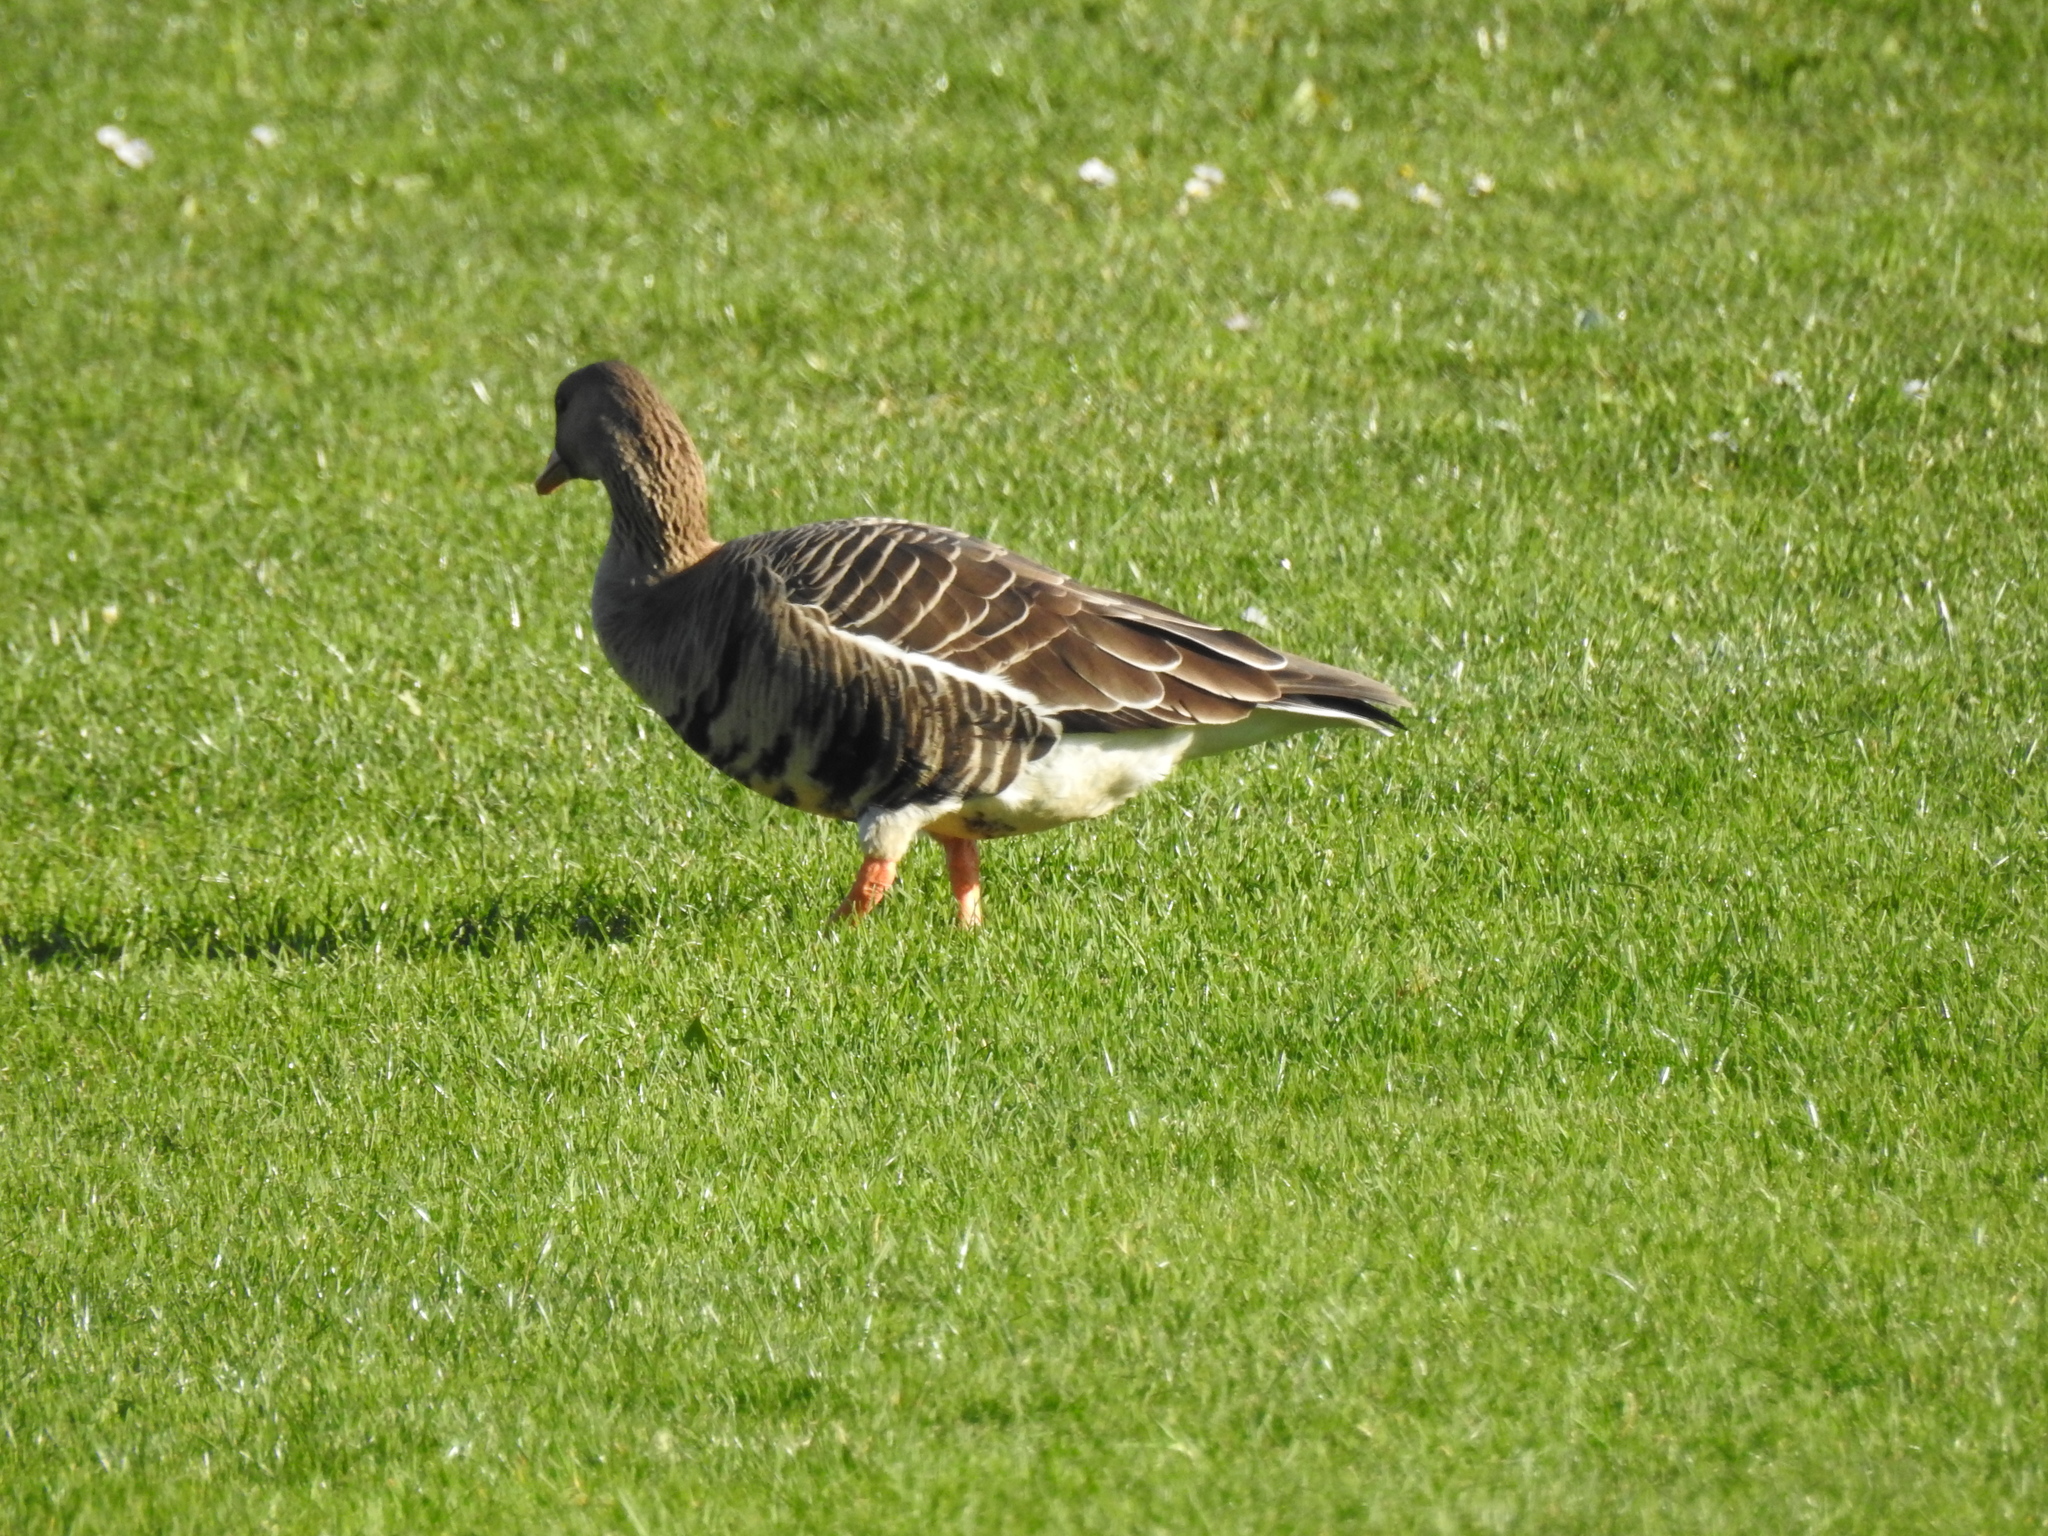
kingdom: Animalia
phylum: Chordata
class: Aves
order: Anseriformes
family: Anatidae
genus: Anser
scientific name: Anser albifrons
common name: Greater white-fronted goose
